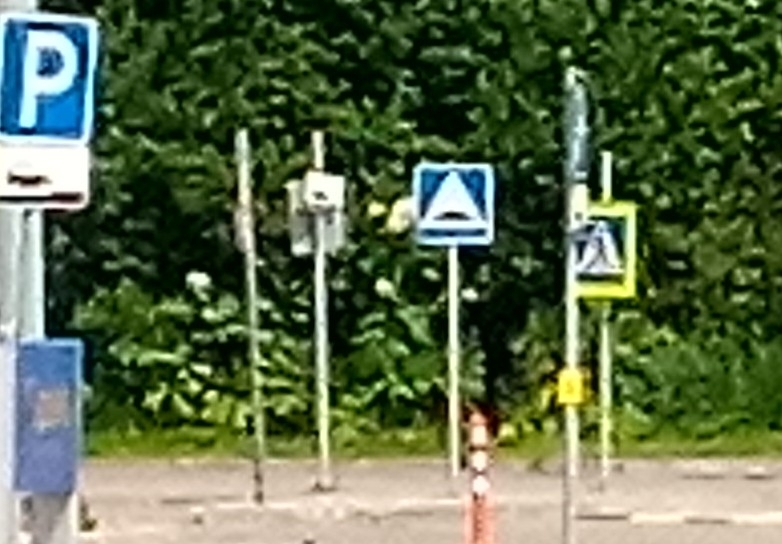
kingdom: Plantae
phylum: Tracheophyta
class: Magnoliopsida
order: Apiales
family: Apiaceae
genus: Heracleum
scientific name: Heracleum sosnowskyi
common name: Sosnowsky's hogweed
